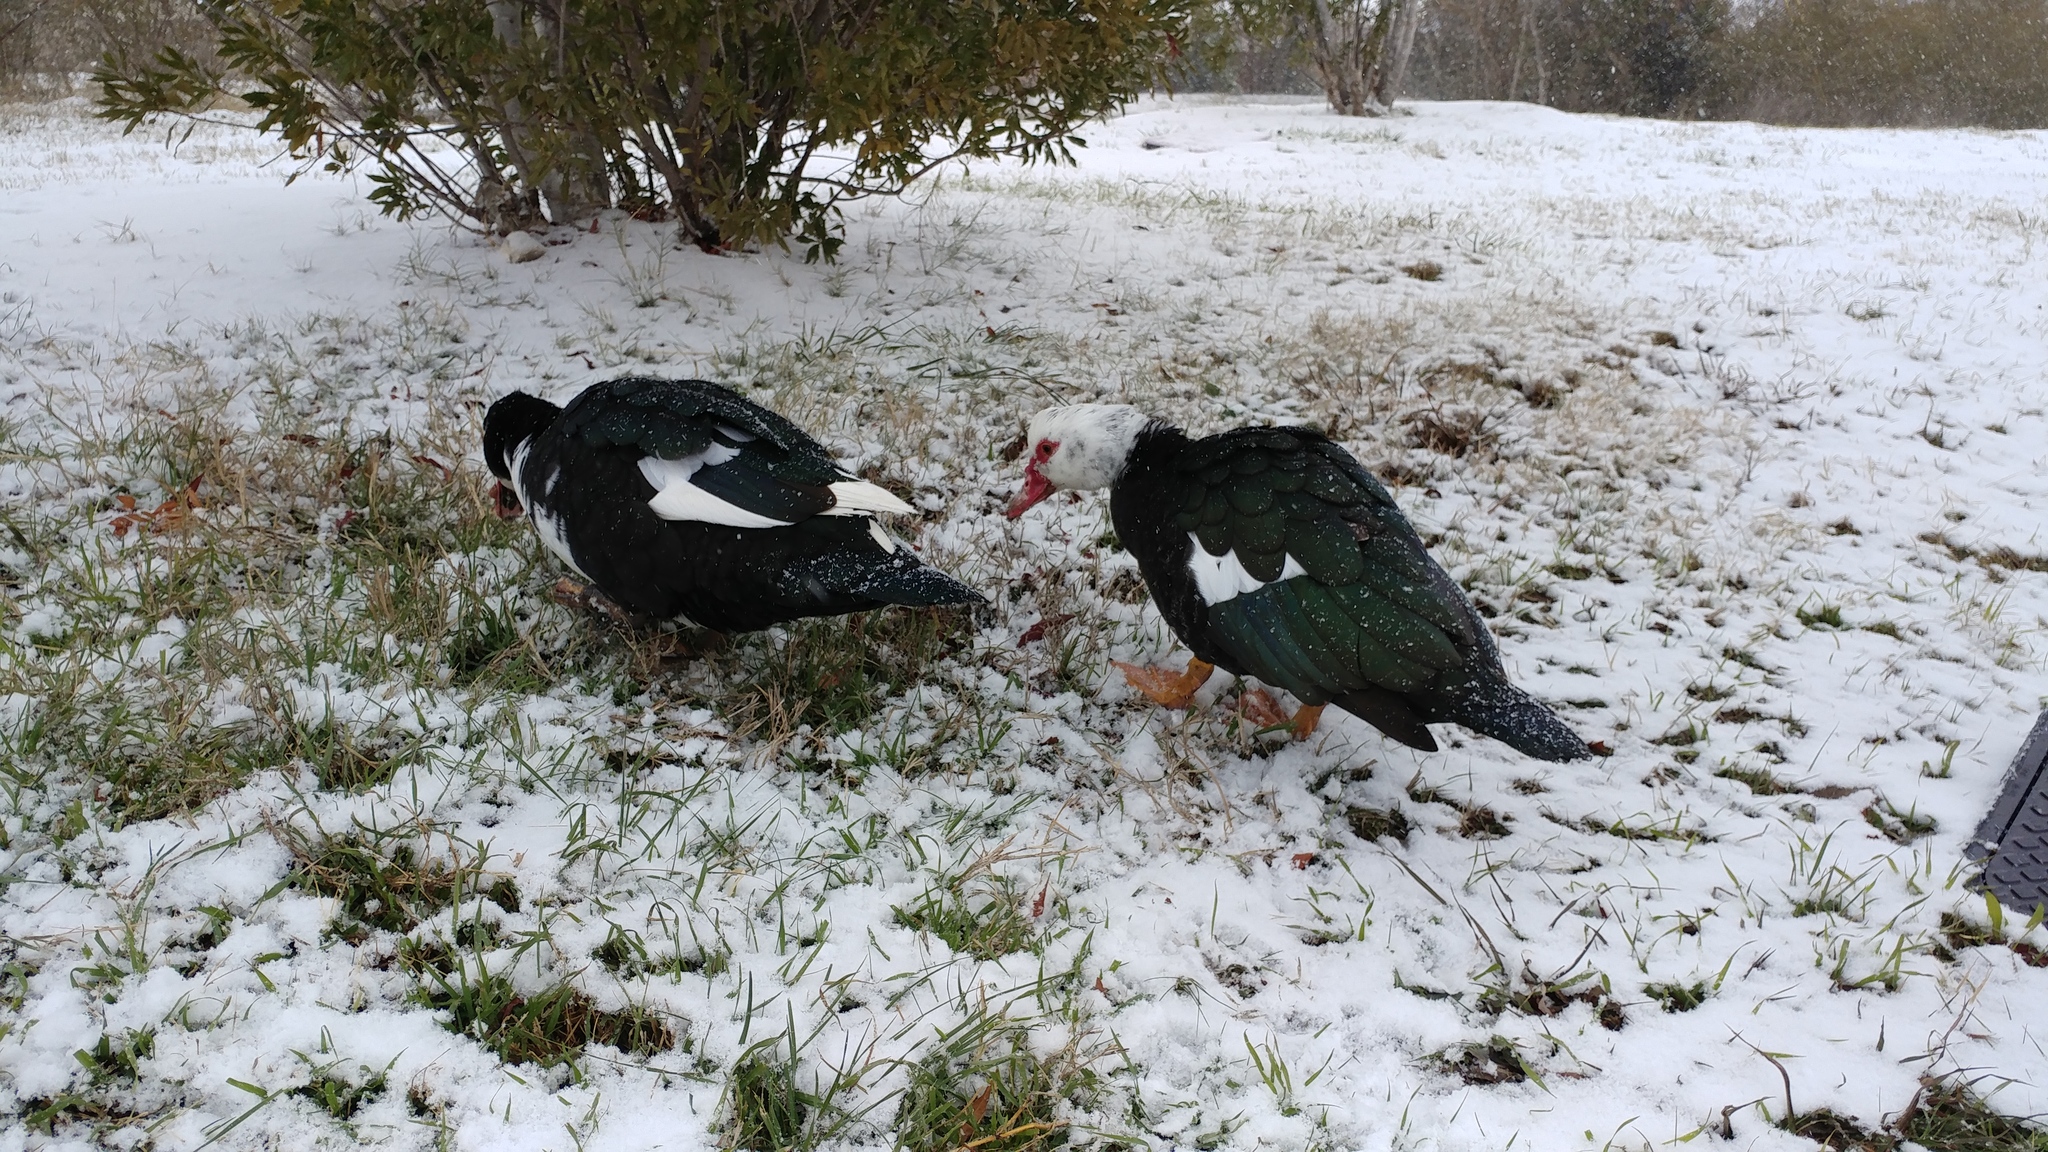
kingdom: Animalia
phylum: Chordata
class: Aves
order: Anseriformes
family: Anatidae
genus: Cairina
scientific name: Cairina moschata
